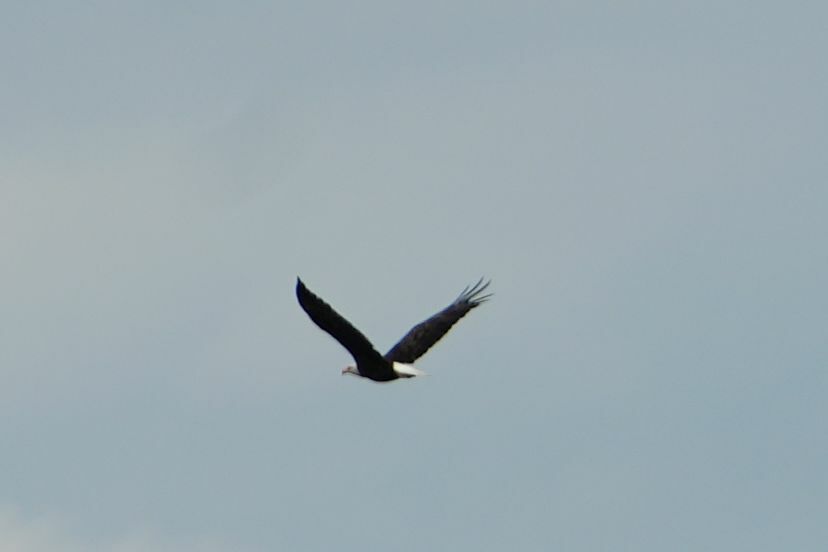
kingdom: Animalia
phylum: Chordata
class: Aves
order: Accipitriformes
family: Accipitridae
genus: Haliaeetus
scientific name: Haliaeetus leucocephalus
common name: Bald eagle
